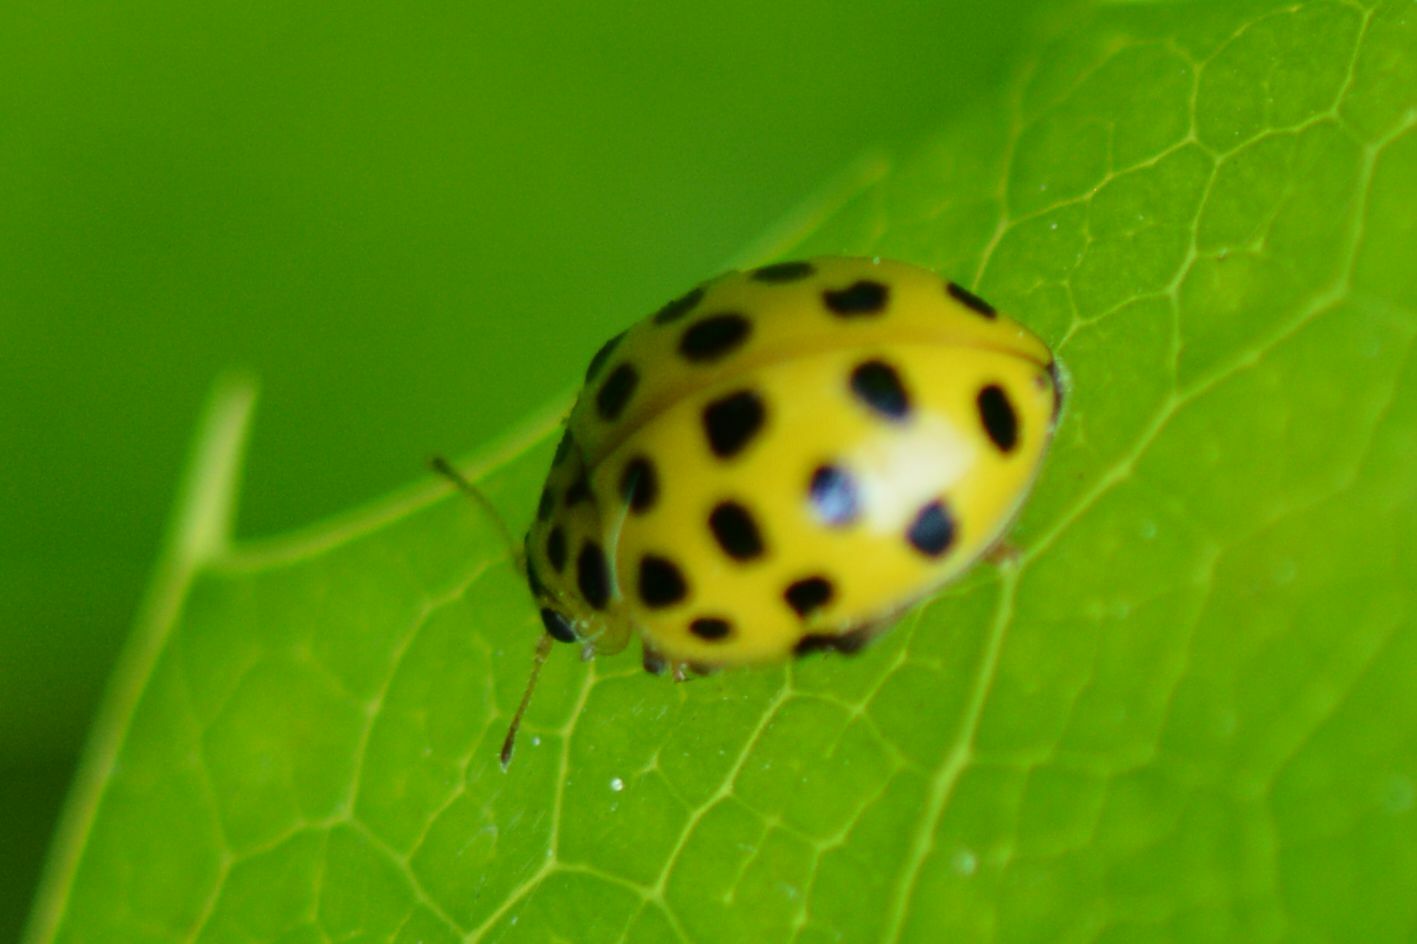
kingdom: Animalia
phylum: Arthropoda
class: Insecta
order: Coleoptera
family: Coccinellidae
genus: Psyllobora
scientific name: Psyllobora vigintiduopunctata
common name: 22-spot ladybird
